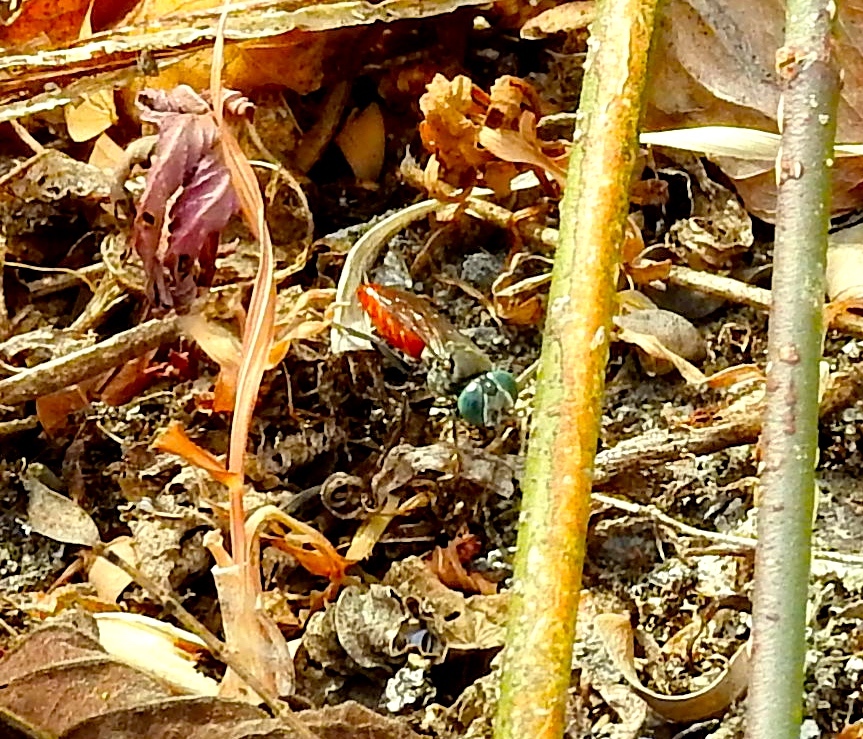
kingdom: Animalia
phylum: Arthropoda
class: Insecta
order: Hymenoptera
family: Crabronidae
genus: Tachysphex
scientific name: Tachysphex
